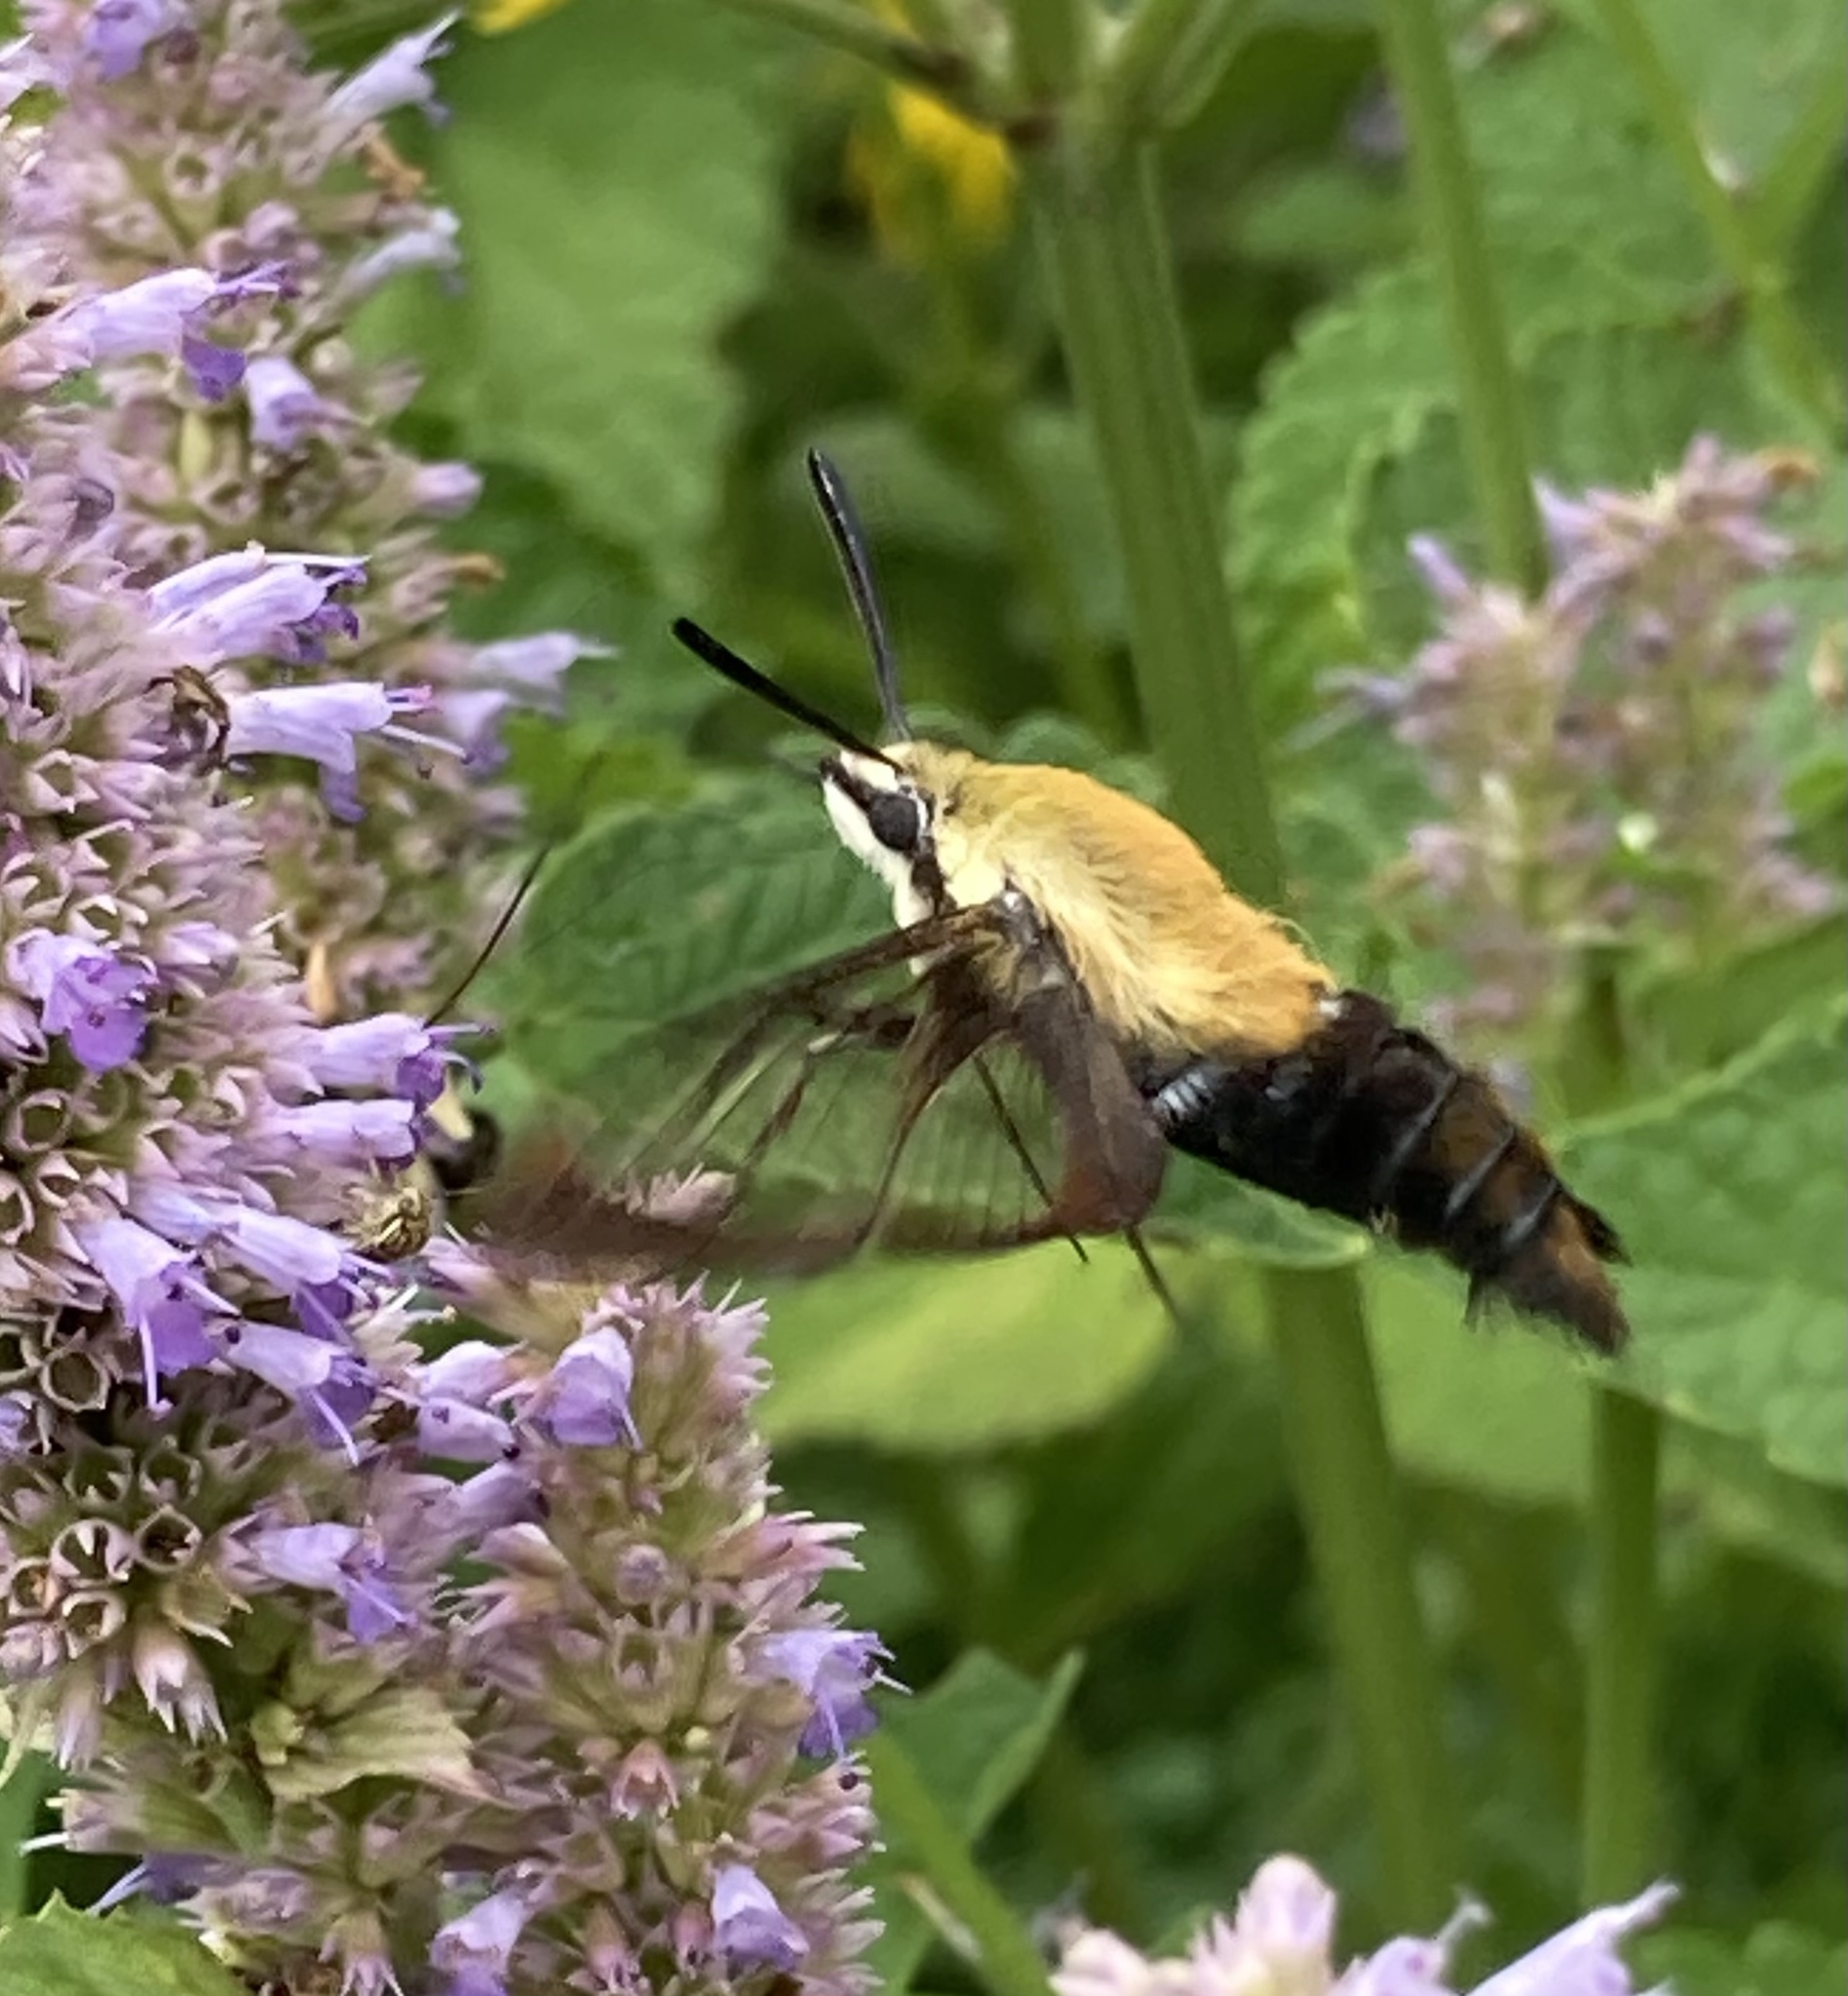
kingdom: Animalia
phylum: Arthropoda
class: Insecta
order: Lepidoptera
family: Sphingidae
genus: Hemaris
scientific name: Hemaris diffinis
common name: Bumblebee moth
